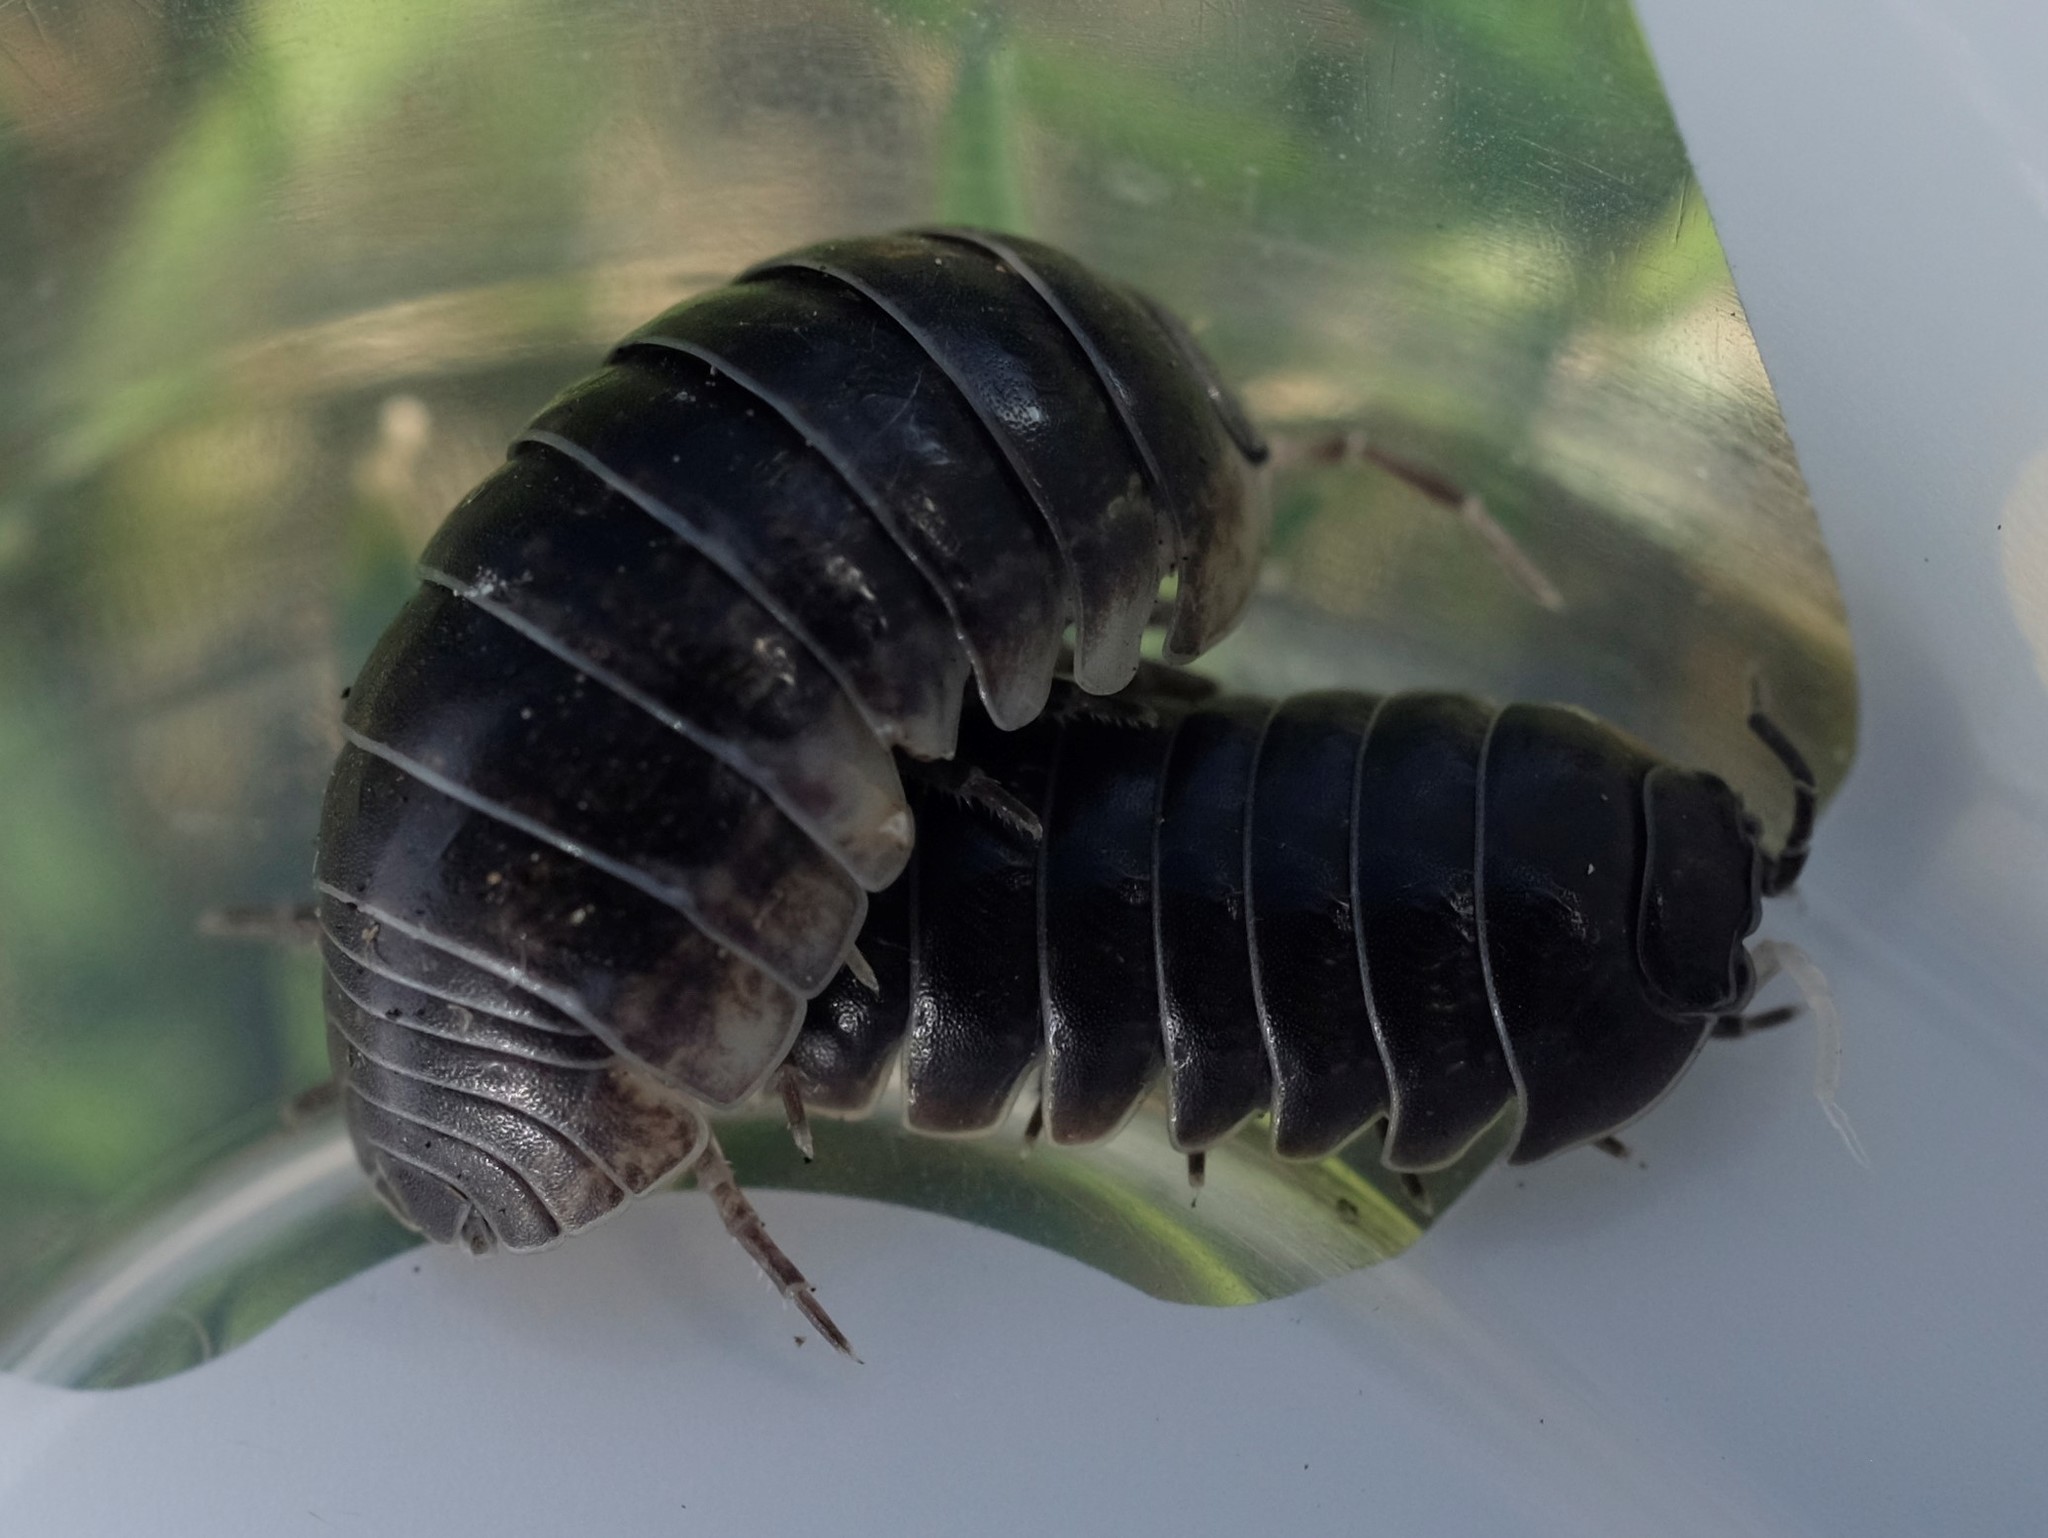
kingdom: Animalia
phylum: Arthropoda
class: Malacostraca
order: Isopoda
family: Armadillidiidae
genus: Armadillidium
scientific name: Armadillidium vulgare
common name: Common pill woodlouse
